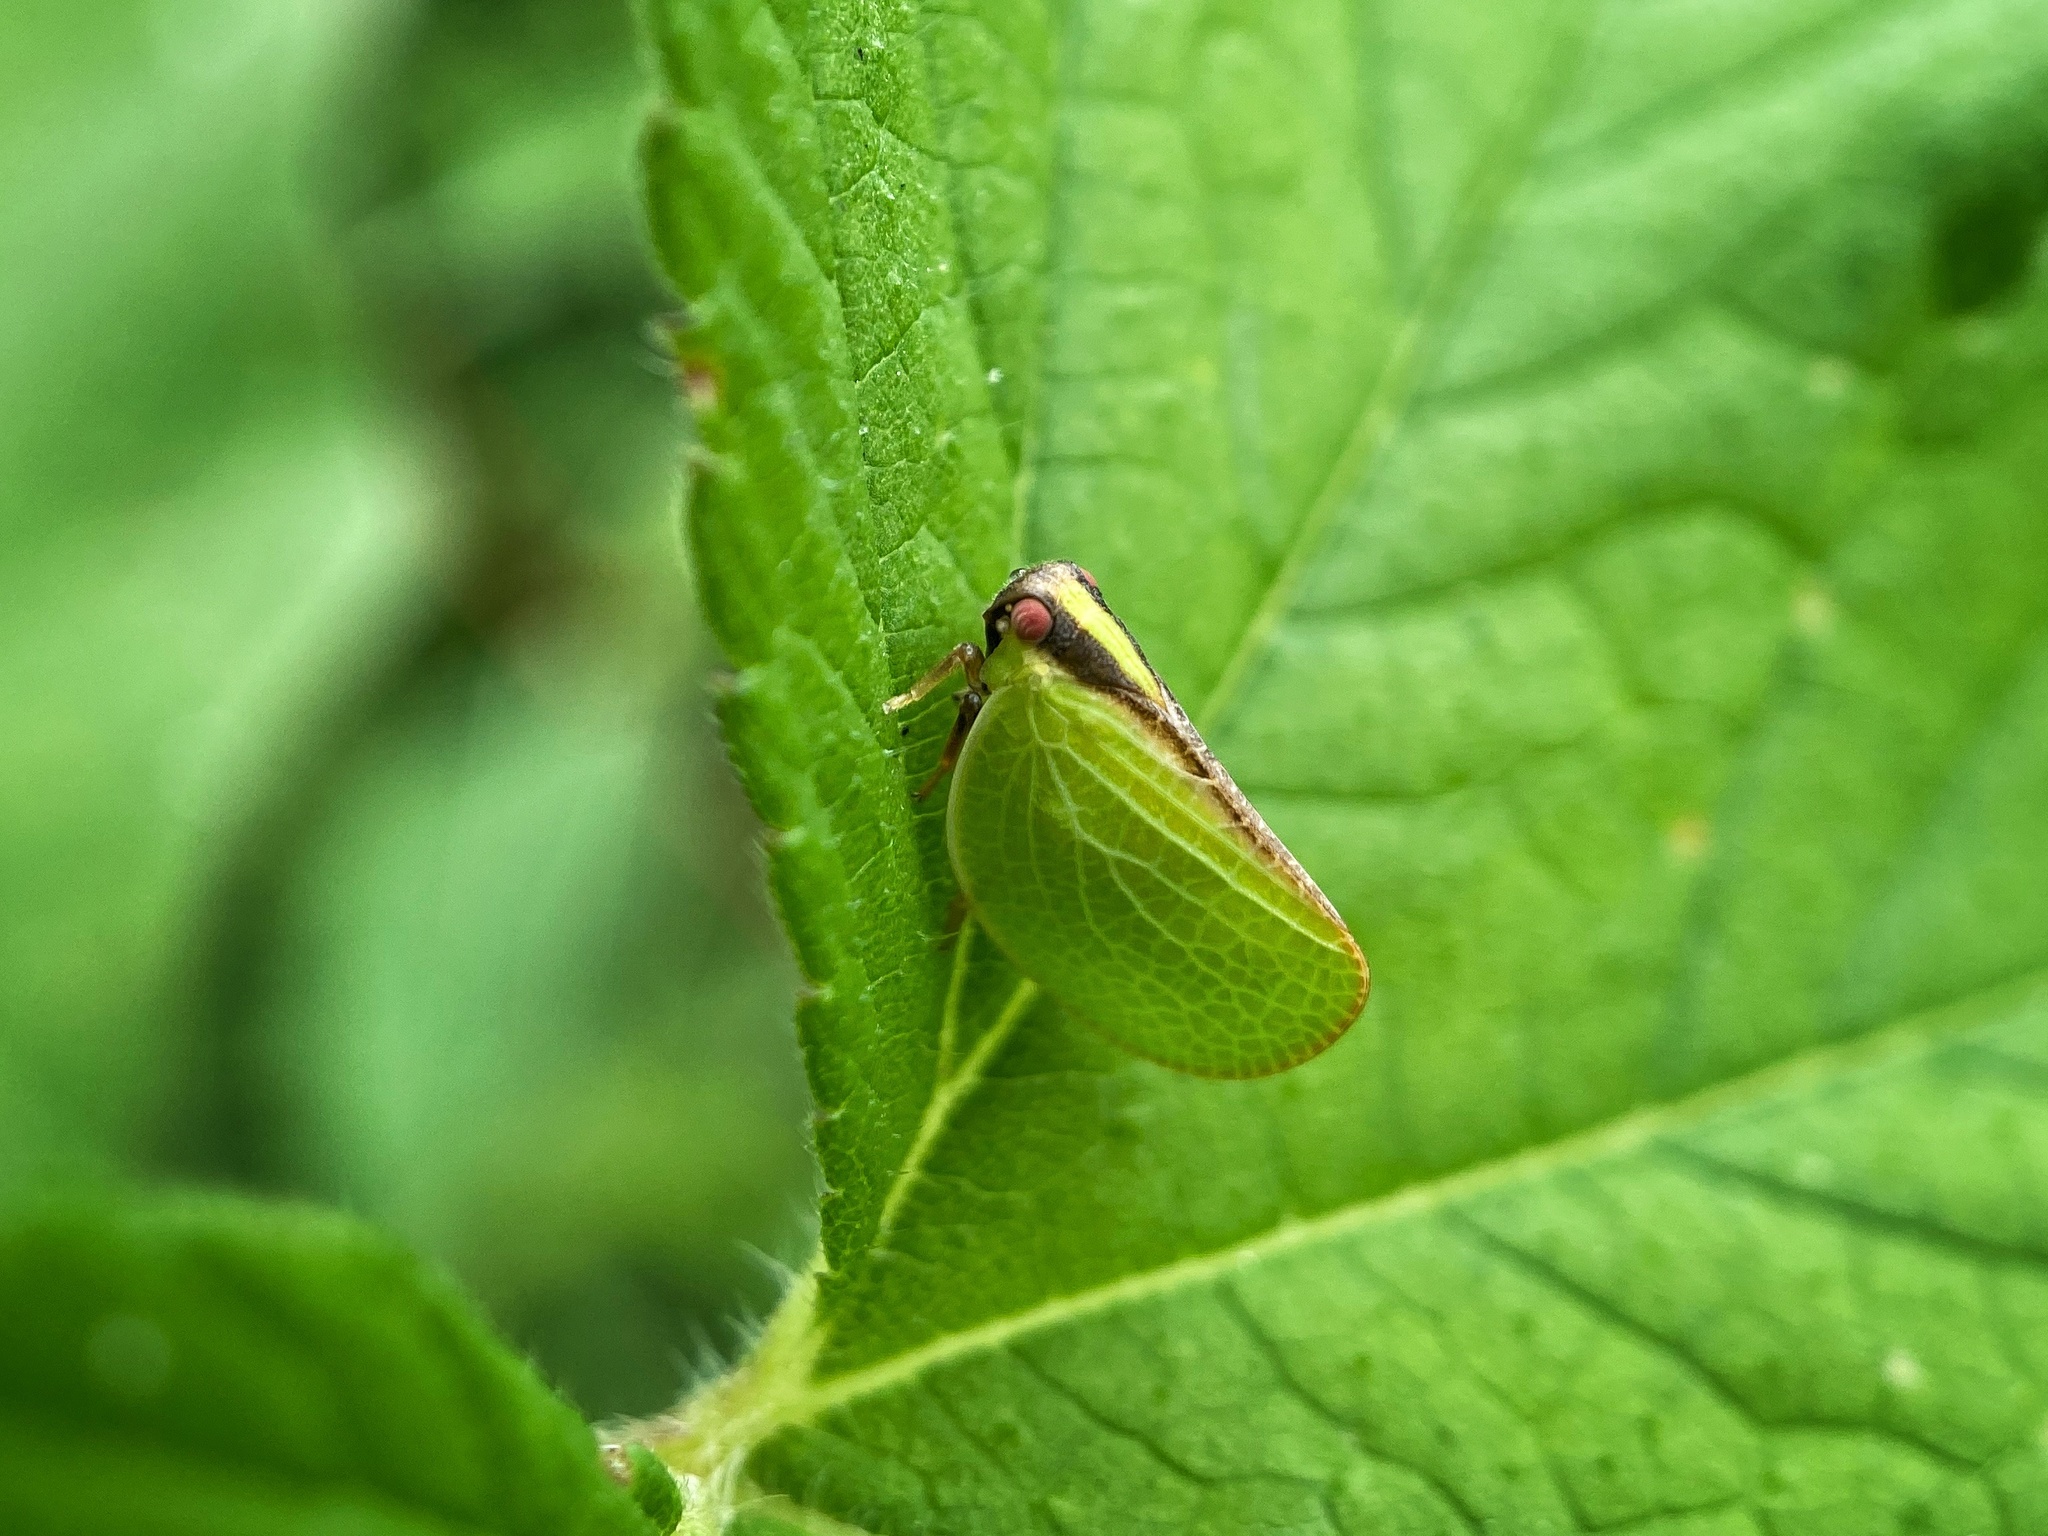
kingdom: Animalia
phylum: Arthropoda
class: Insecta
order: Hemiptera
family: Acanaloniidae
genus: Acanalonia
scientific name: Acanalonia bivittata
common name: Two-striped planthopper
